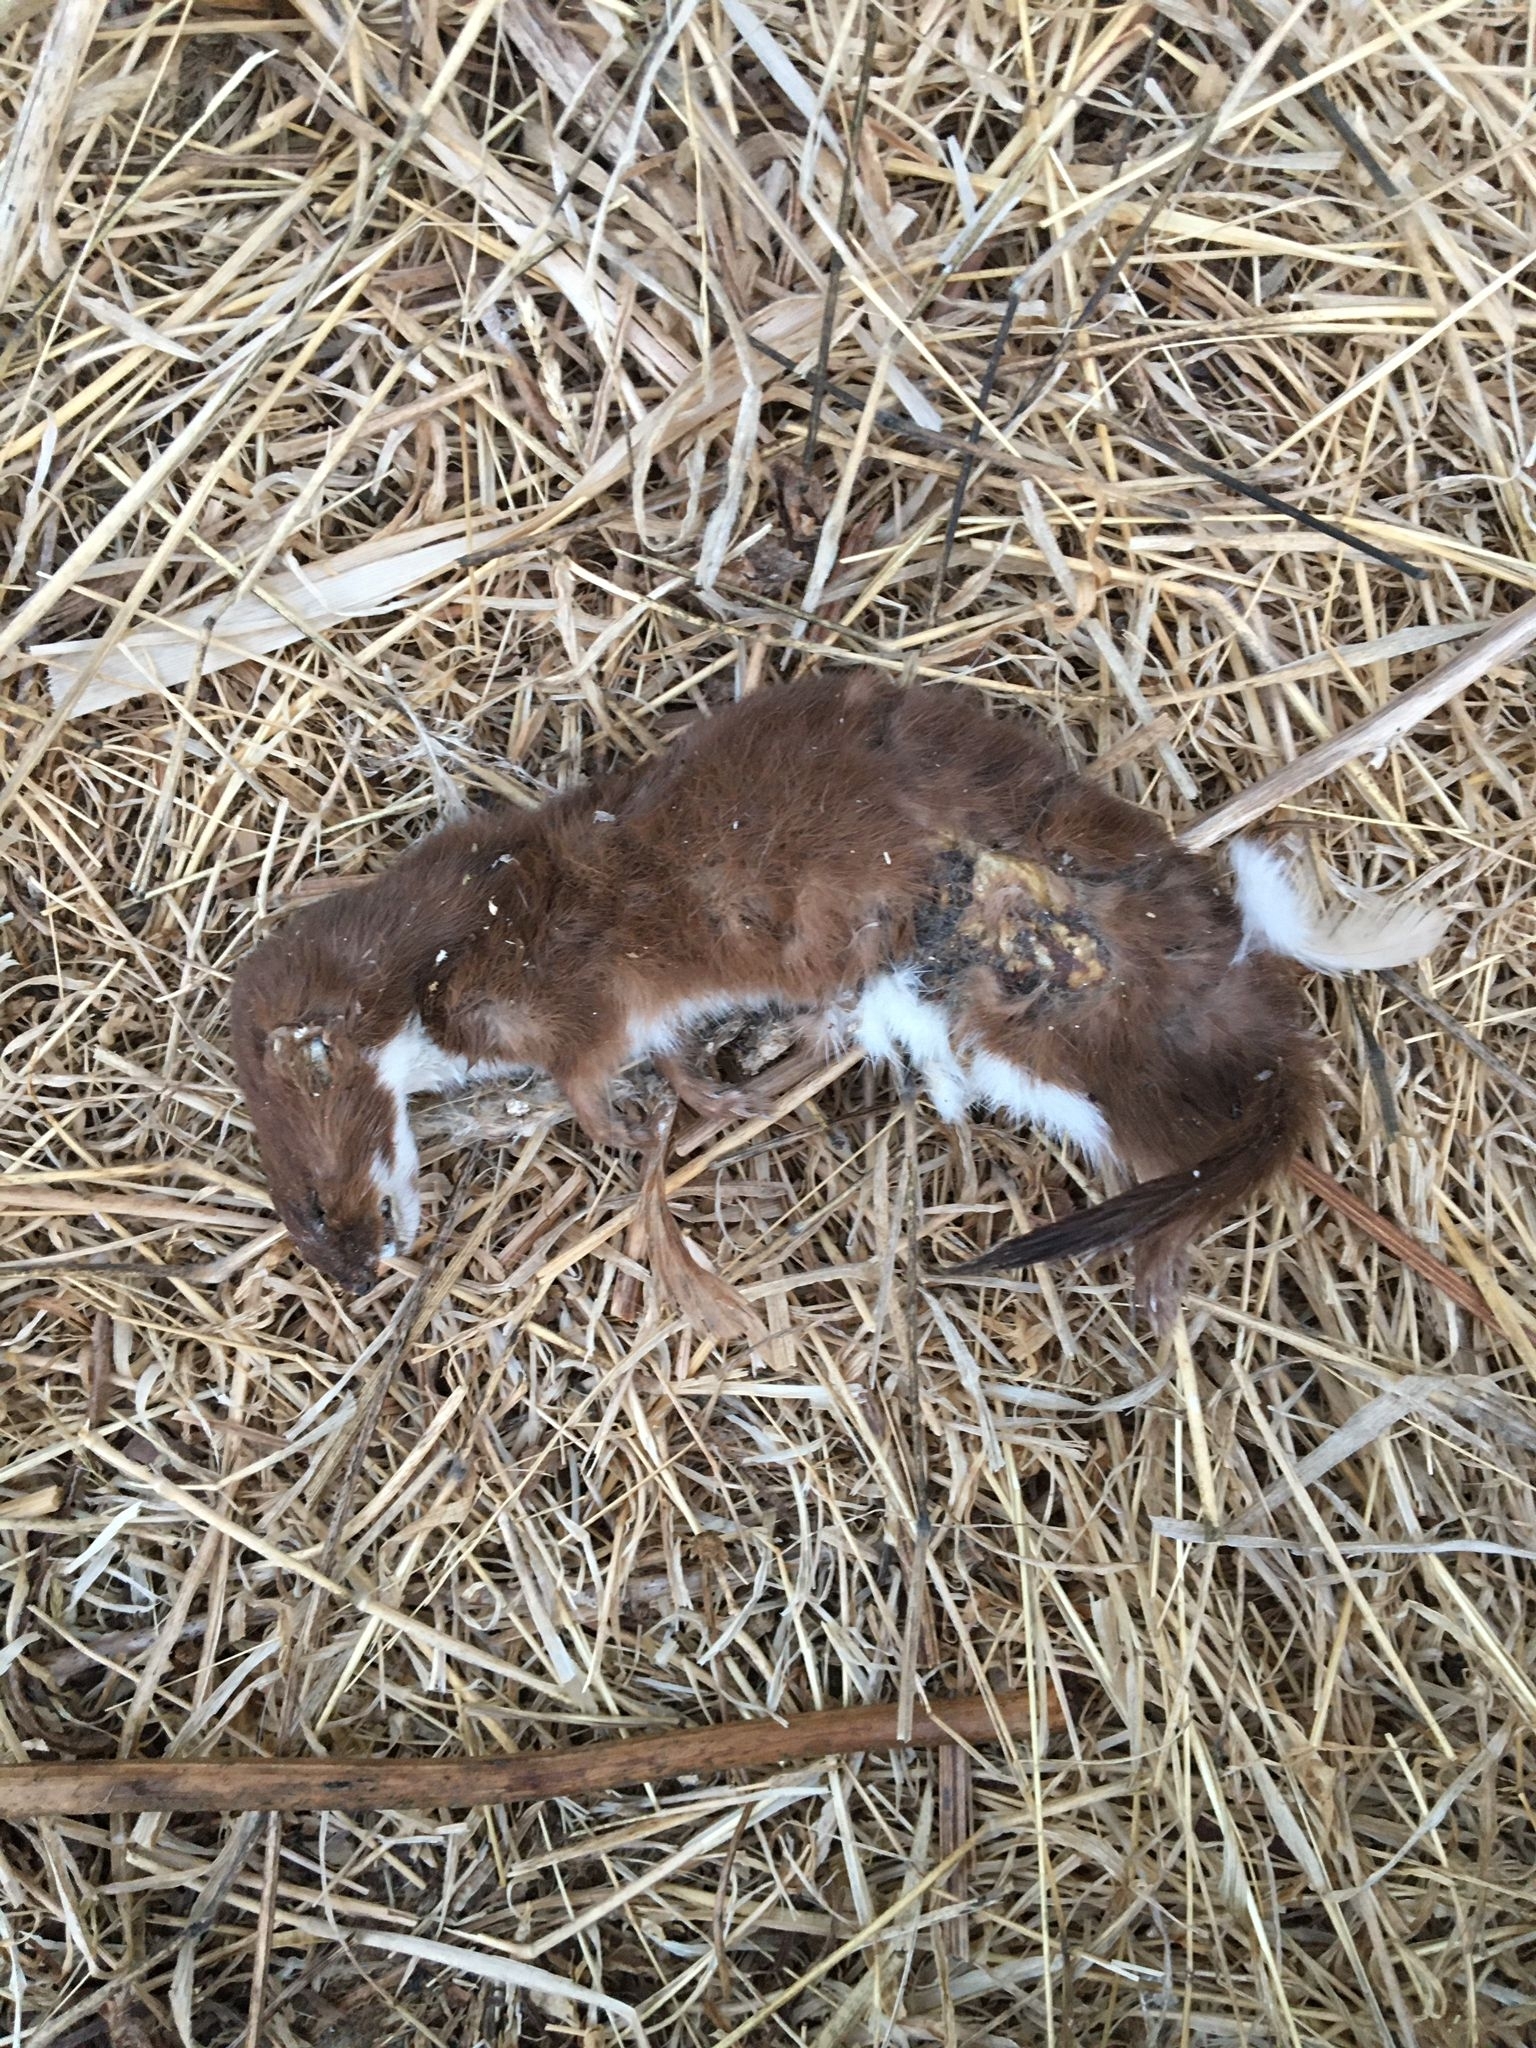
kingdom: Animalia
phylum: Chordata
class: Mammalia
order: Carnivora
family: Mustelidae
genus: Mustela
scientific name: Mustela nivalis
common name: Least weasel
